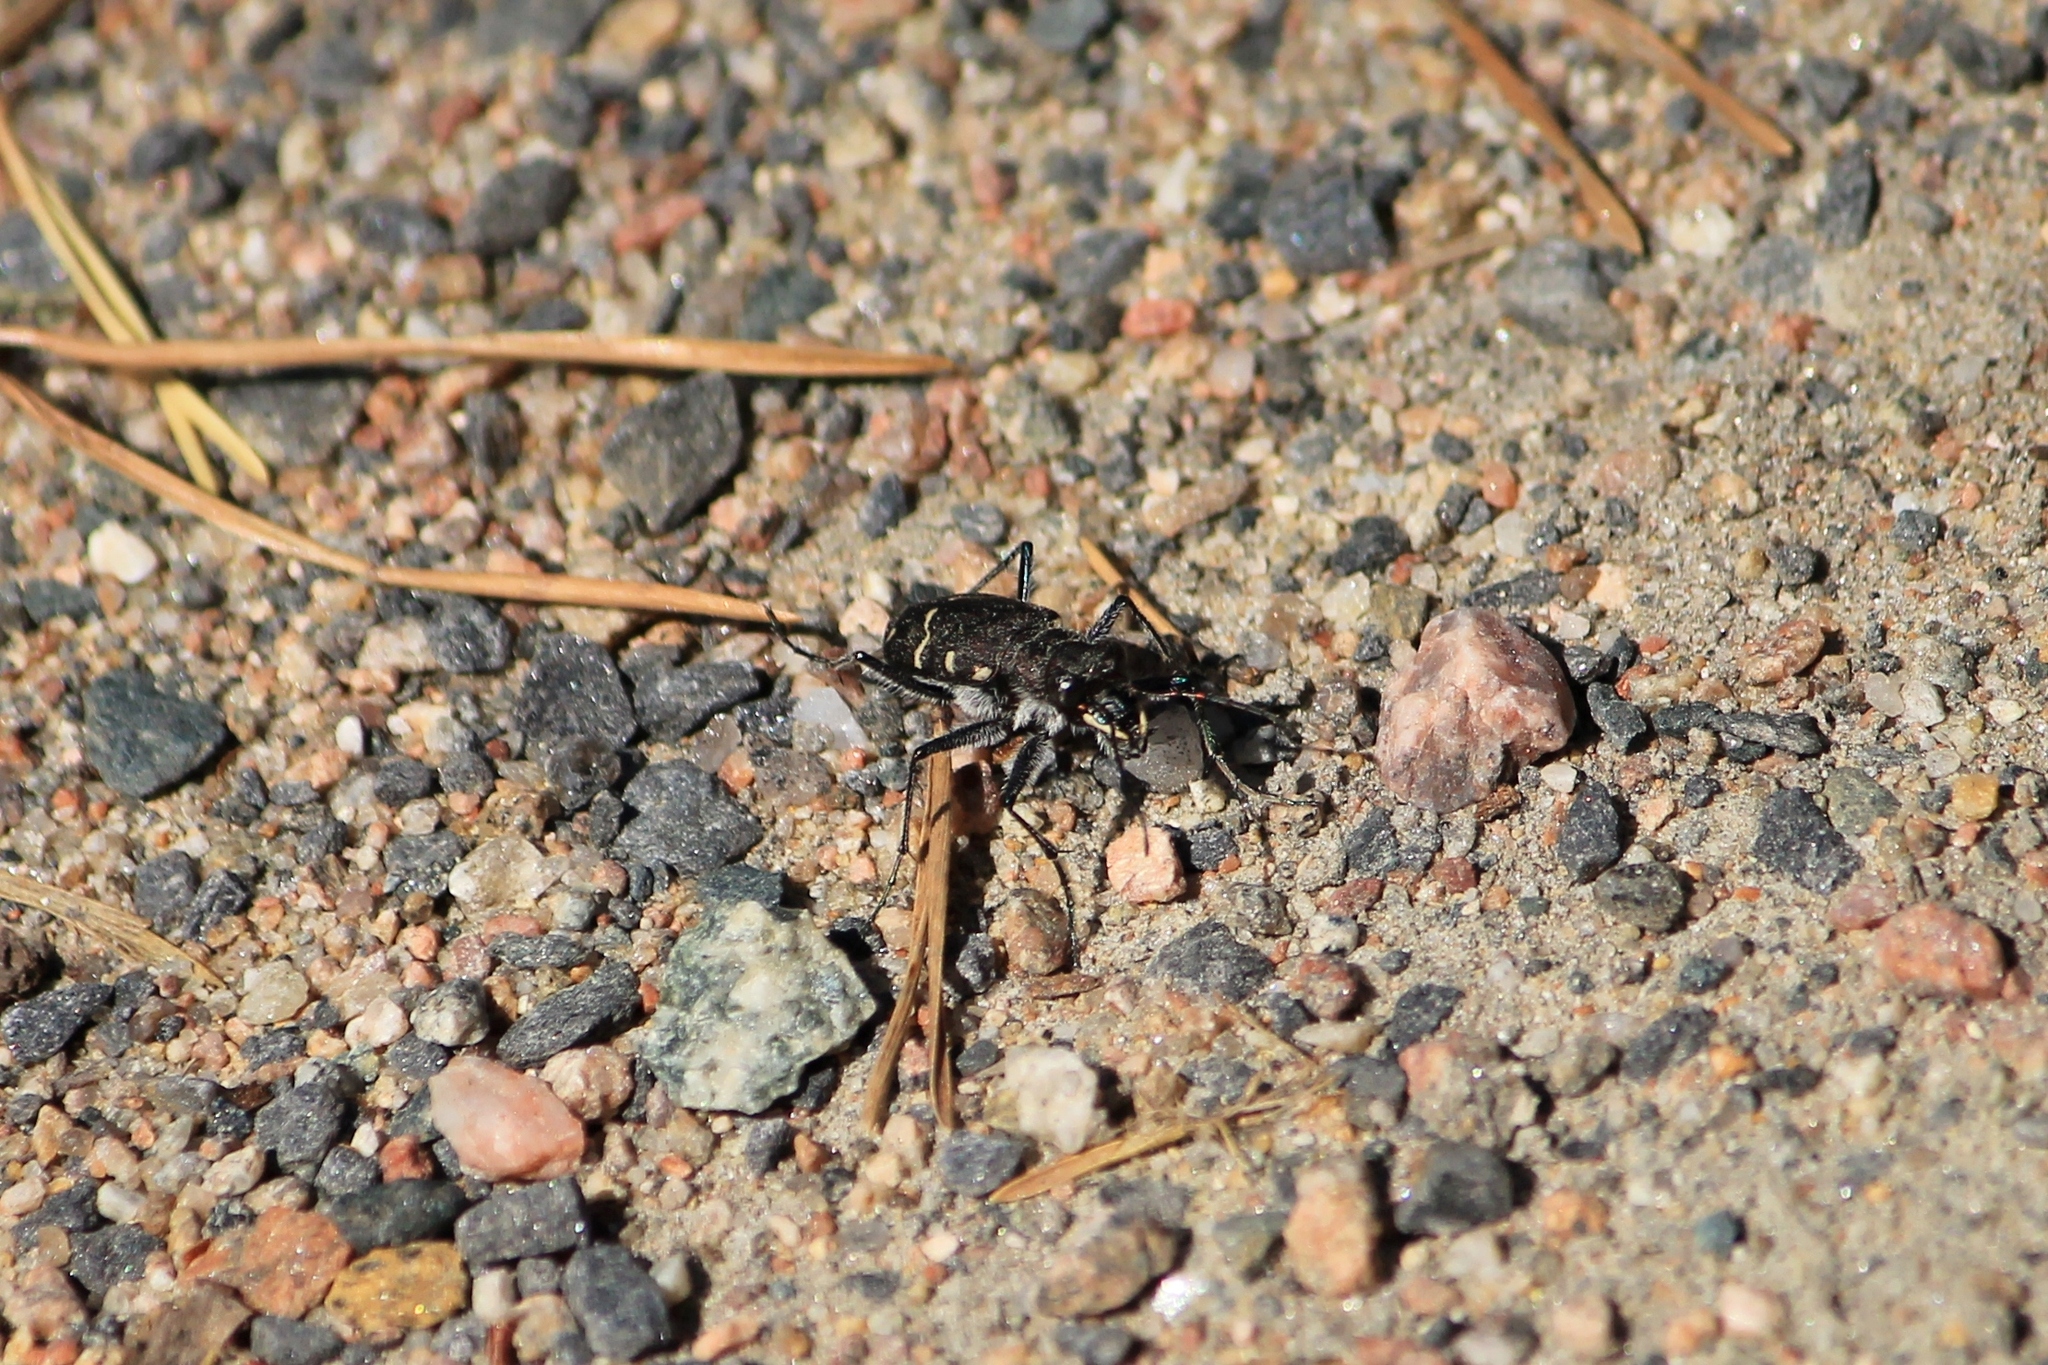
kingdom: Animalia
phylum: Arthropoda
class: Insecta
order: Coleoptera
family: Carabidae
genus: Cicindela
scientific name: Cicindela sylvatica
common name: Heath tiger beetle
